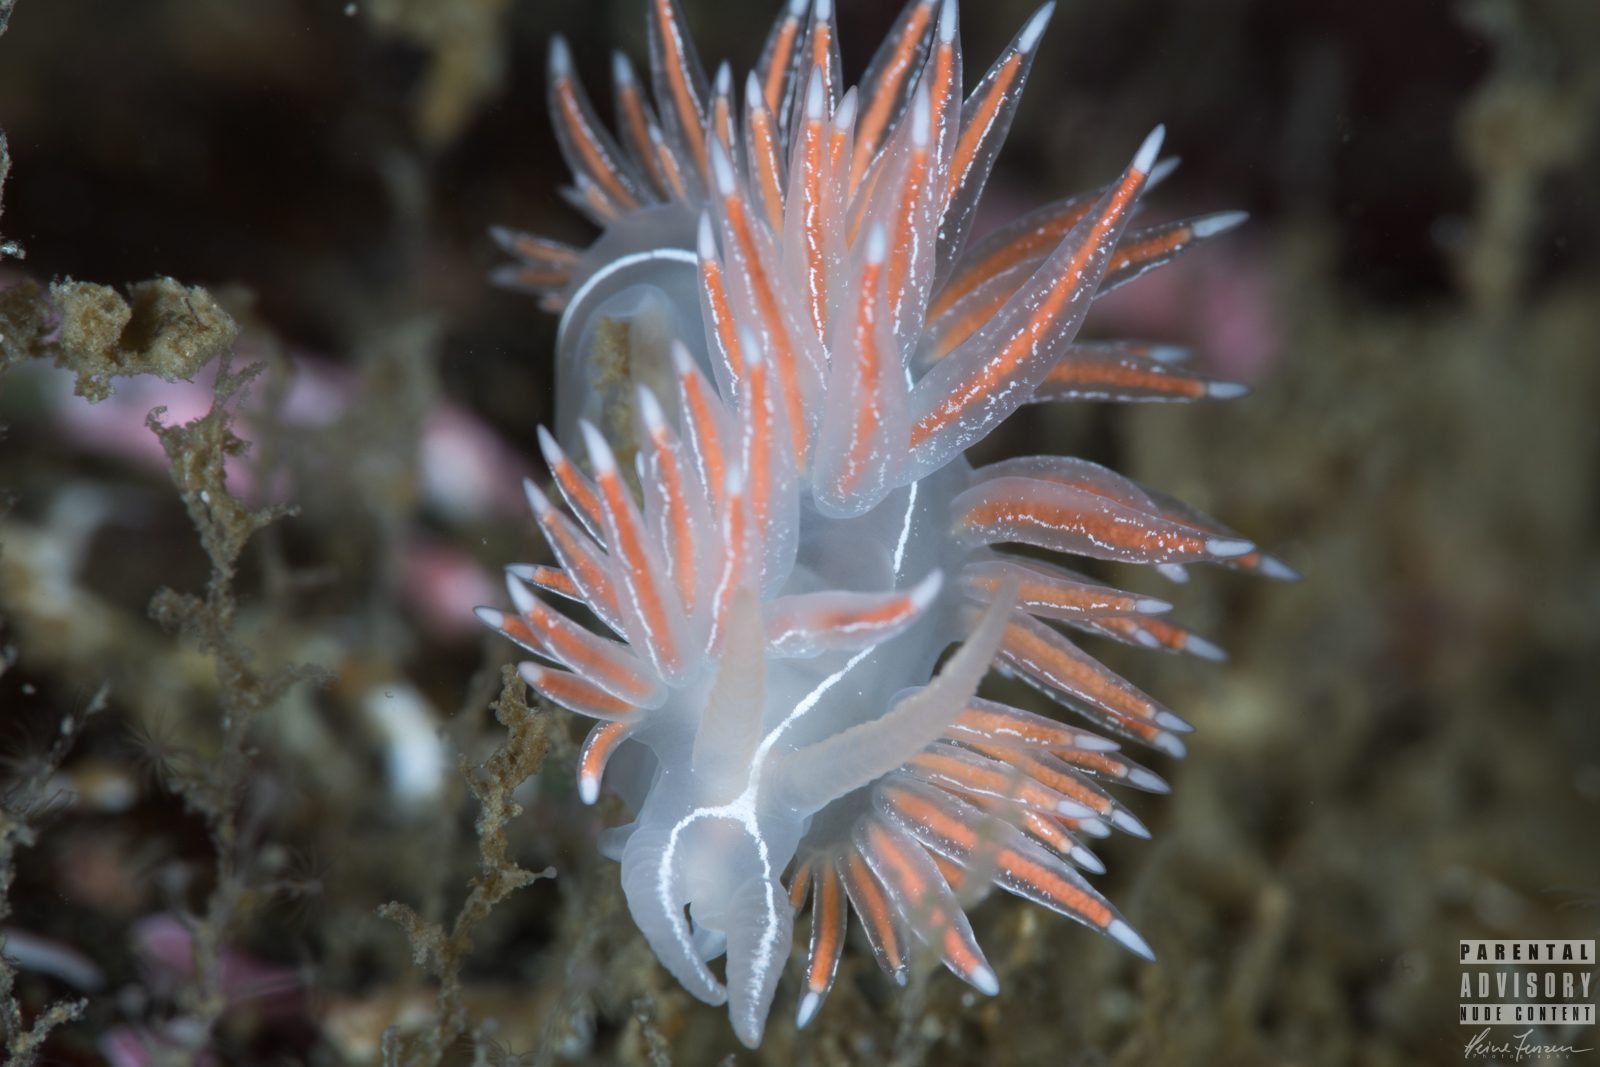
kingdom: Animalia
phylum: Mollusca
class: Gastropoda
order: Nudibranchia
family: Coryphellidae
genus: Coryphella
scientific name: Coryphella chriskaugei
